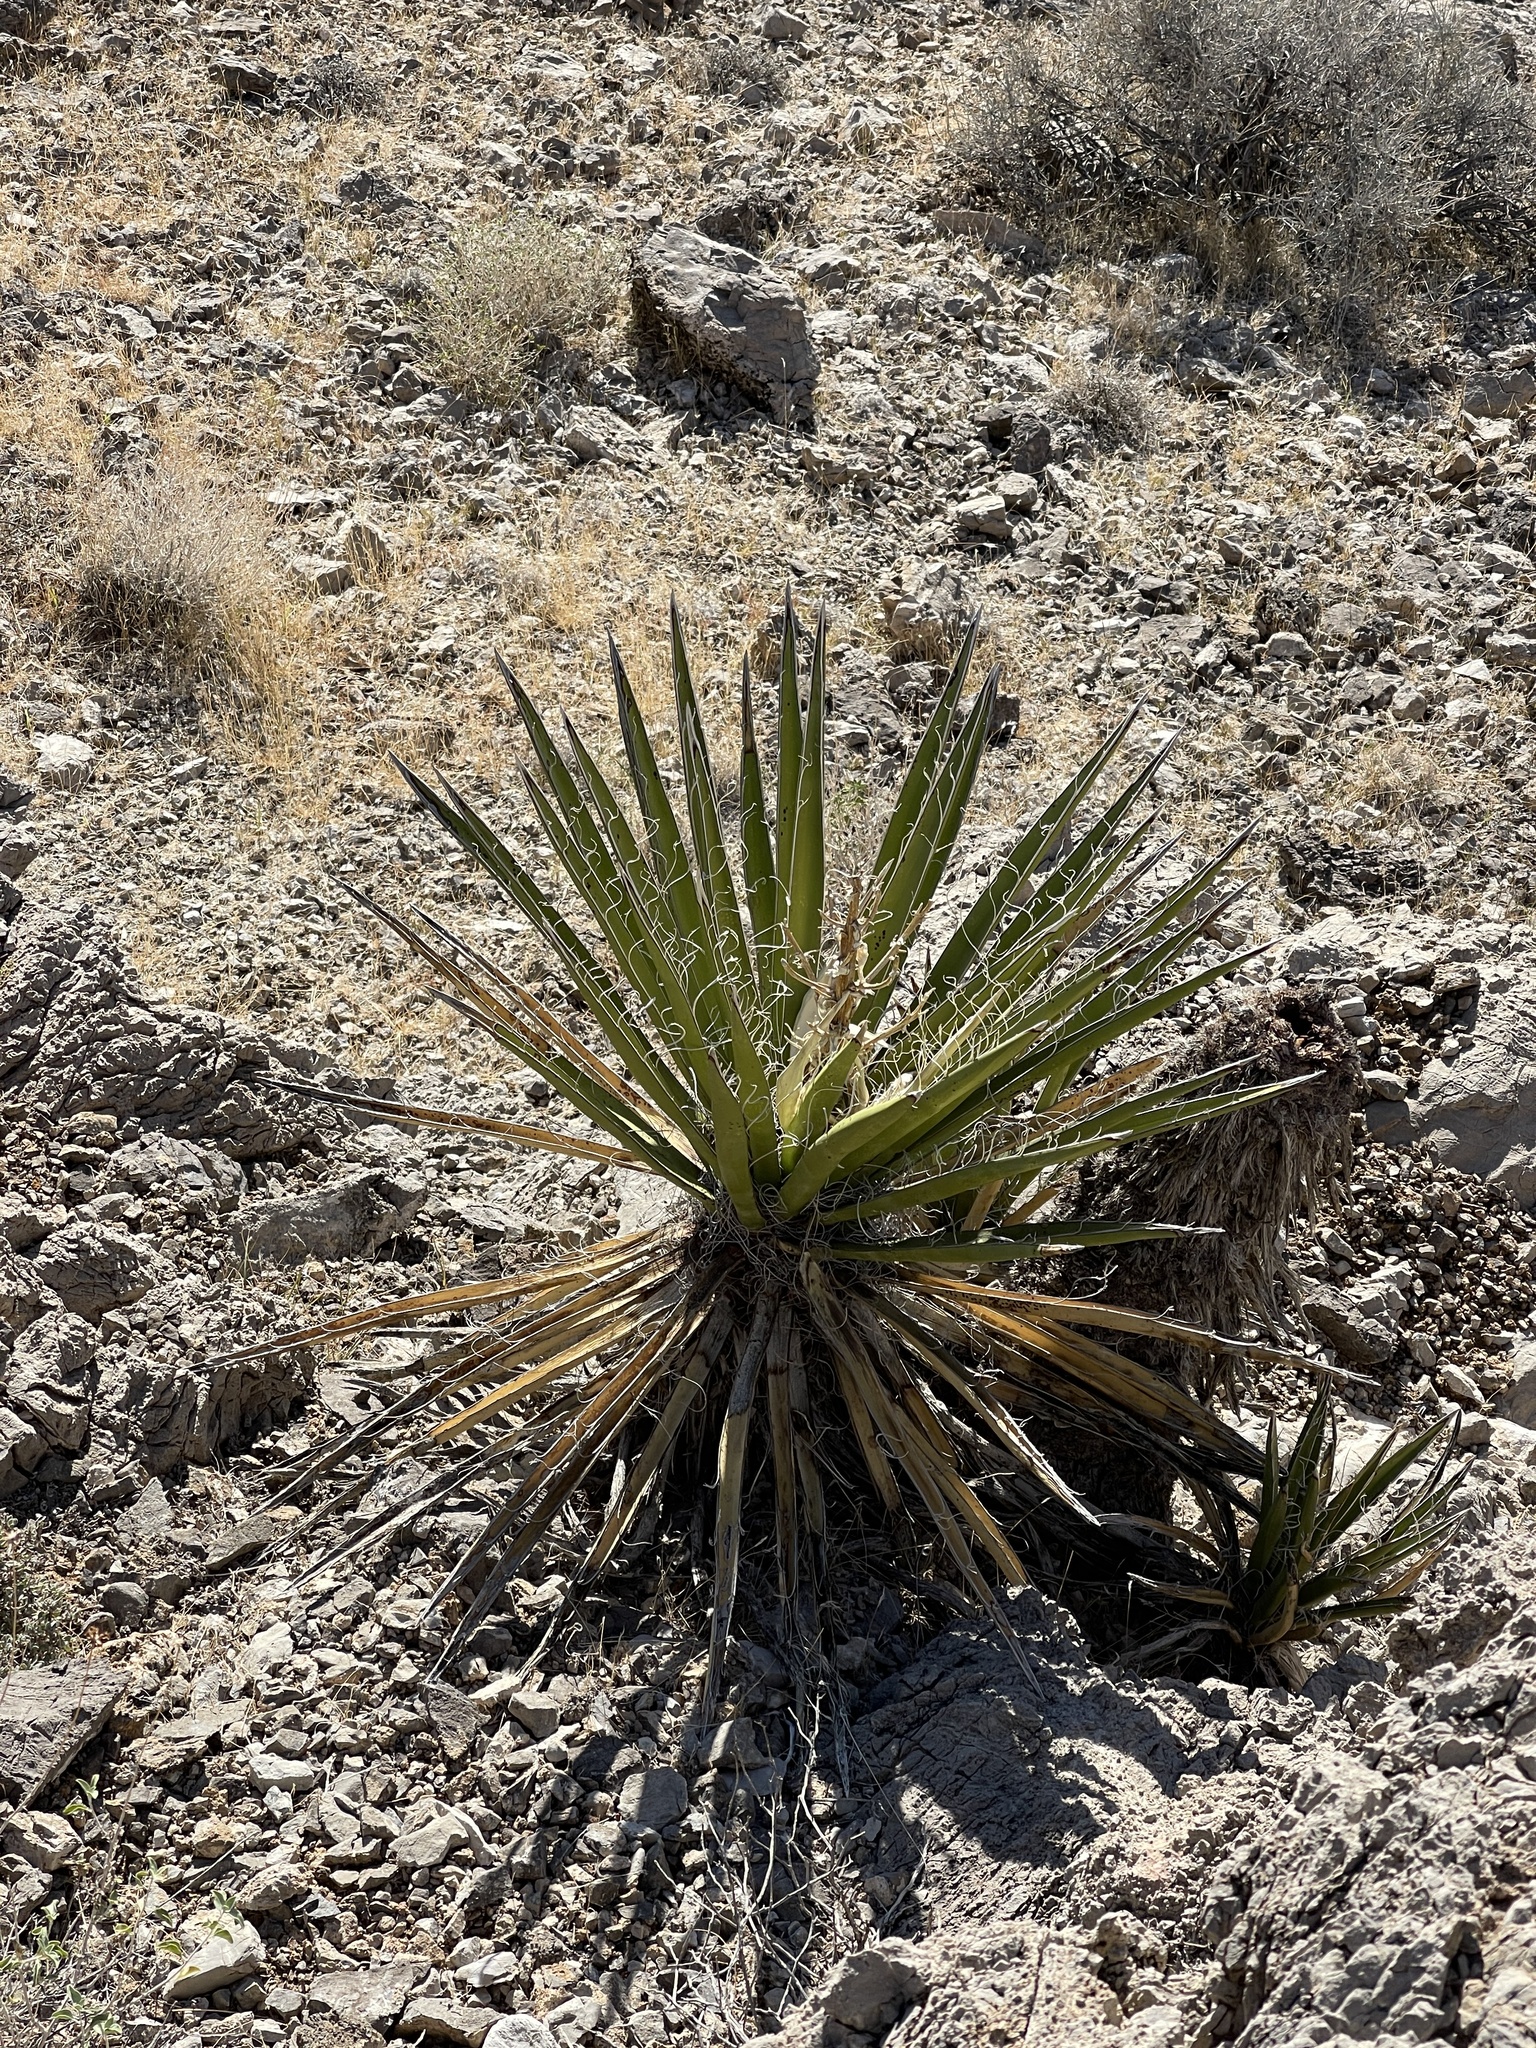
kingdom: Plantae
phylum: Tracheophyta
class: Liliopsida
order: Asparagales
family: Asparagaceae
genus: Yucca
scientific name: Yucca schidigera
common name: Mojave yucca
